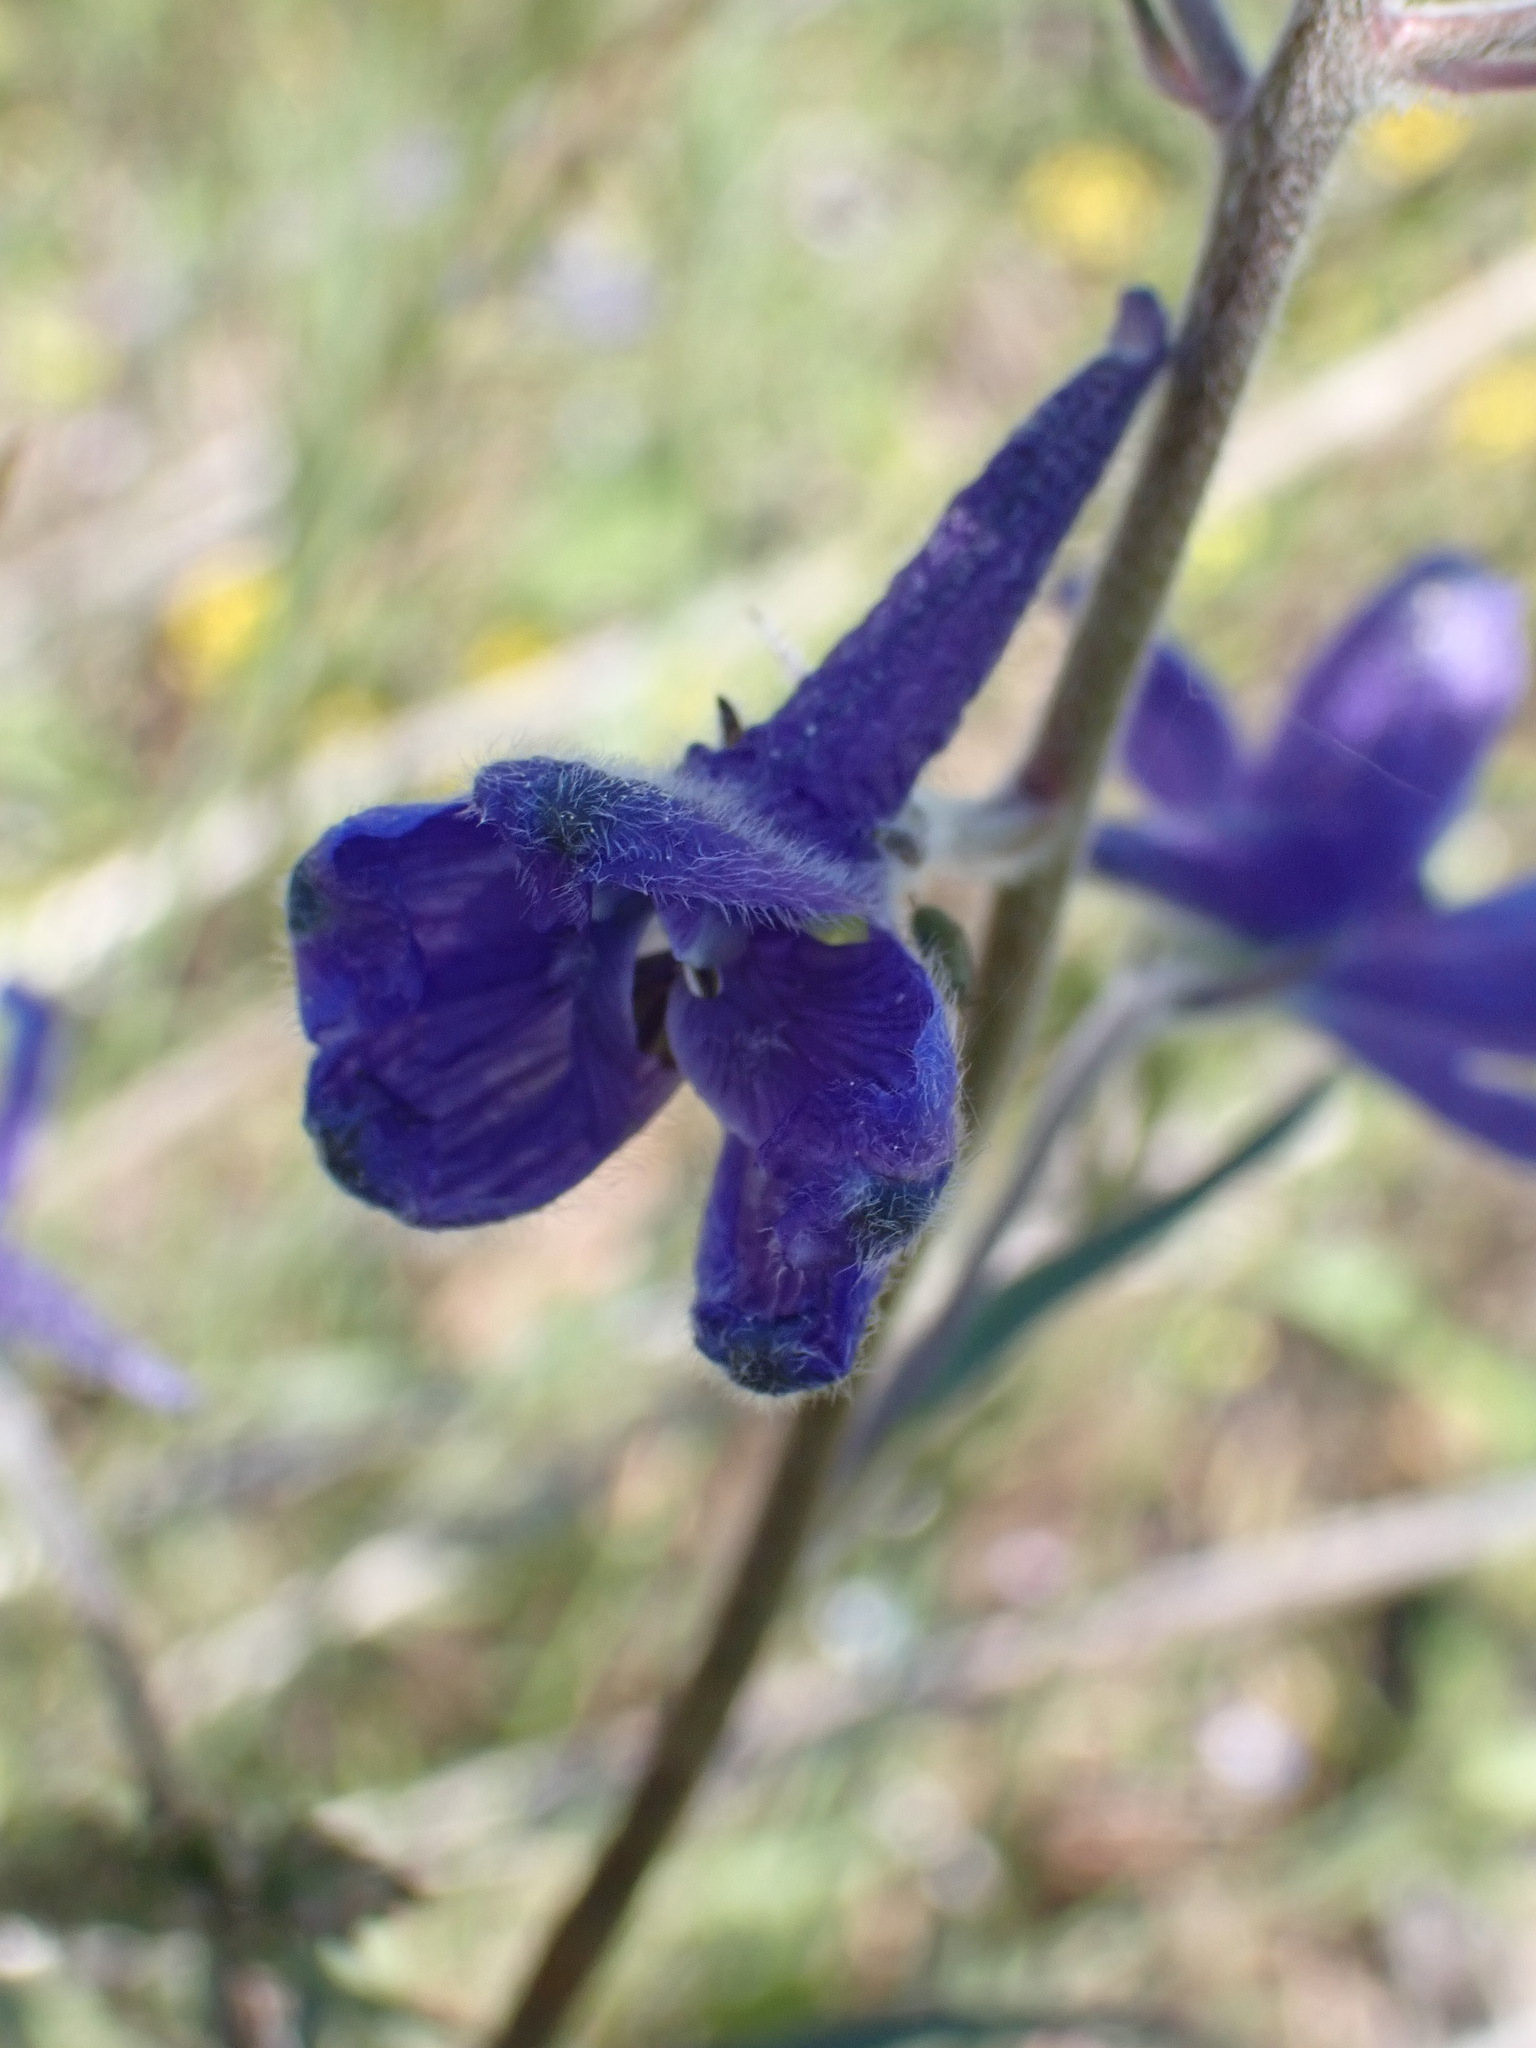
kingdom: Plantae
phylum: Tracheophyta
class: Magnoliopsida
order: Ranunculales
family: Ranunculaceae
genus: Delphinium
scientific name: Delphinium nuttallianum
